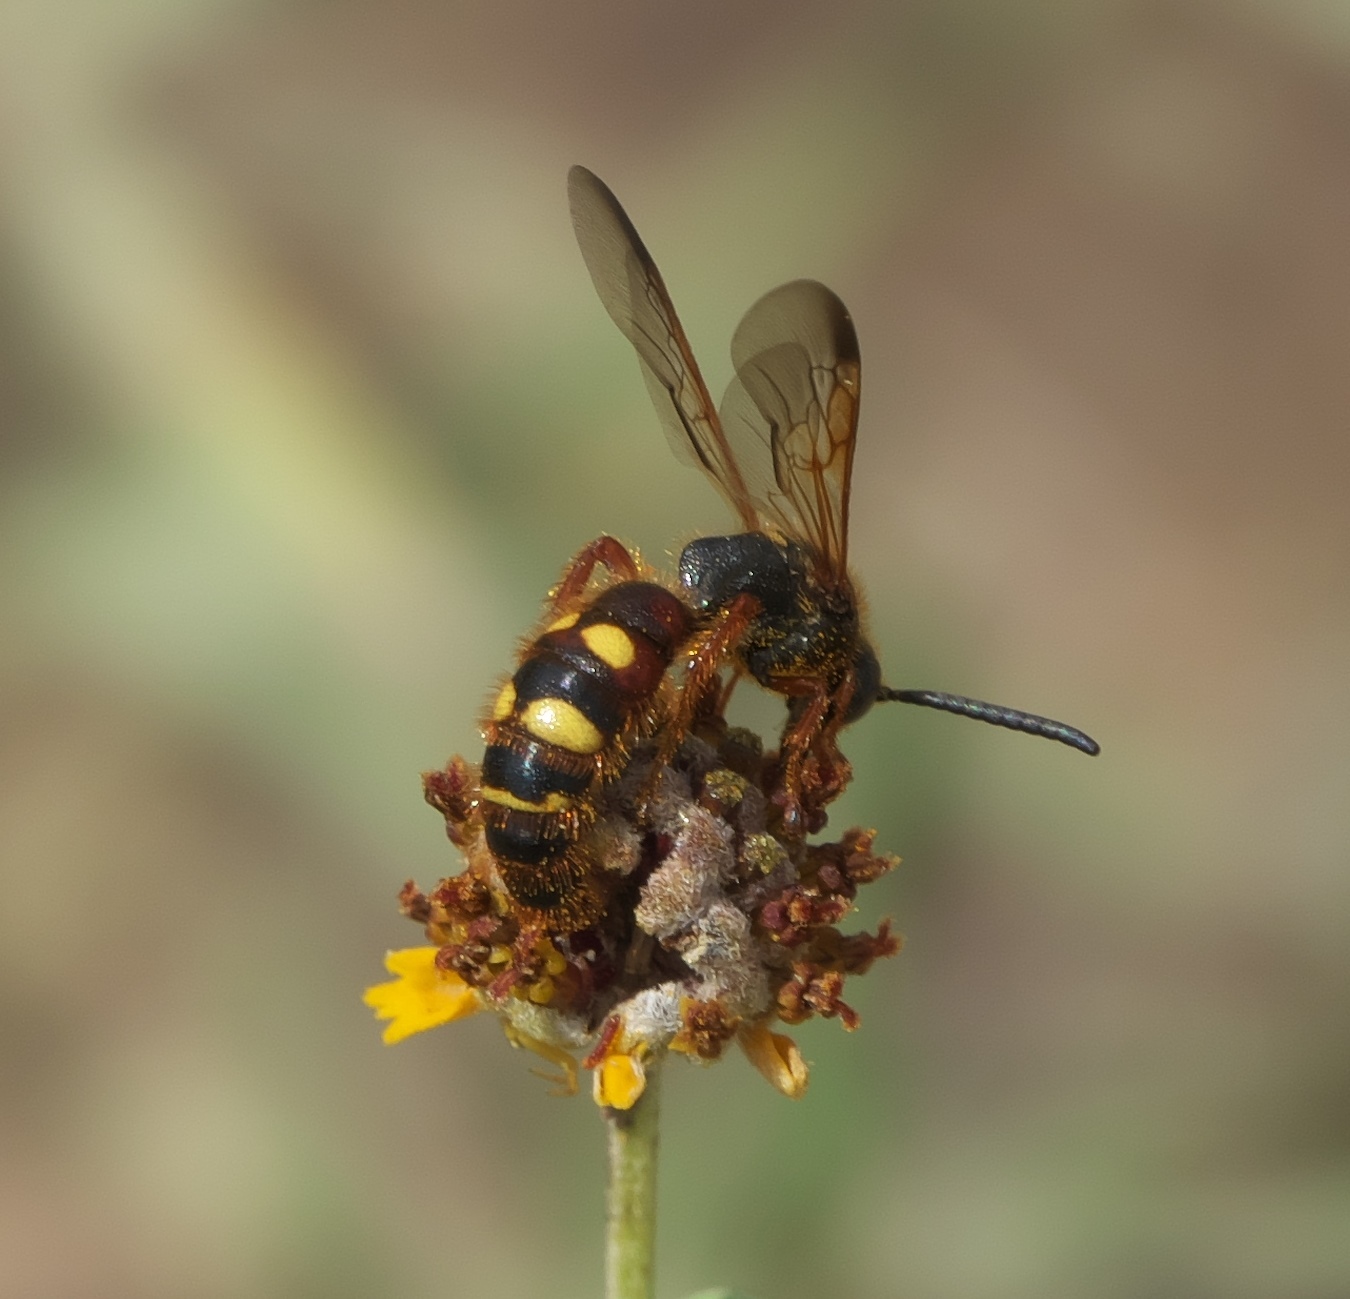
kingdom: Animalia
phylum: Arthropoda
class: Insecta
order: Hymenoptera
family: Scoliidae
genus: Scolia
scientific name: Scolia nobilitata
